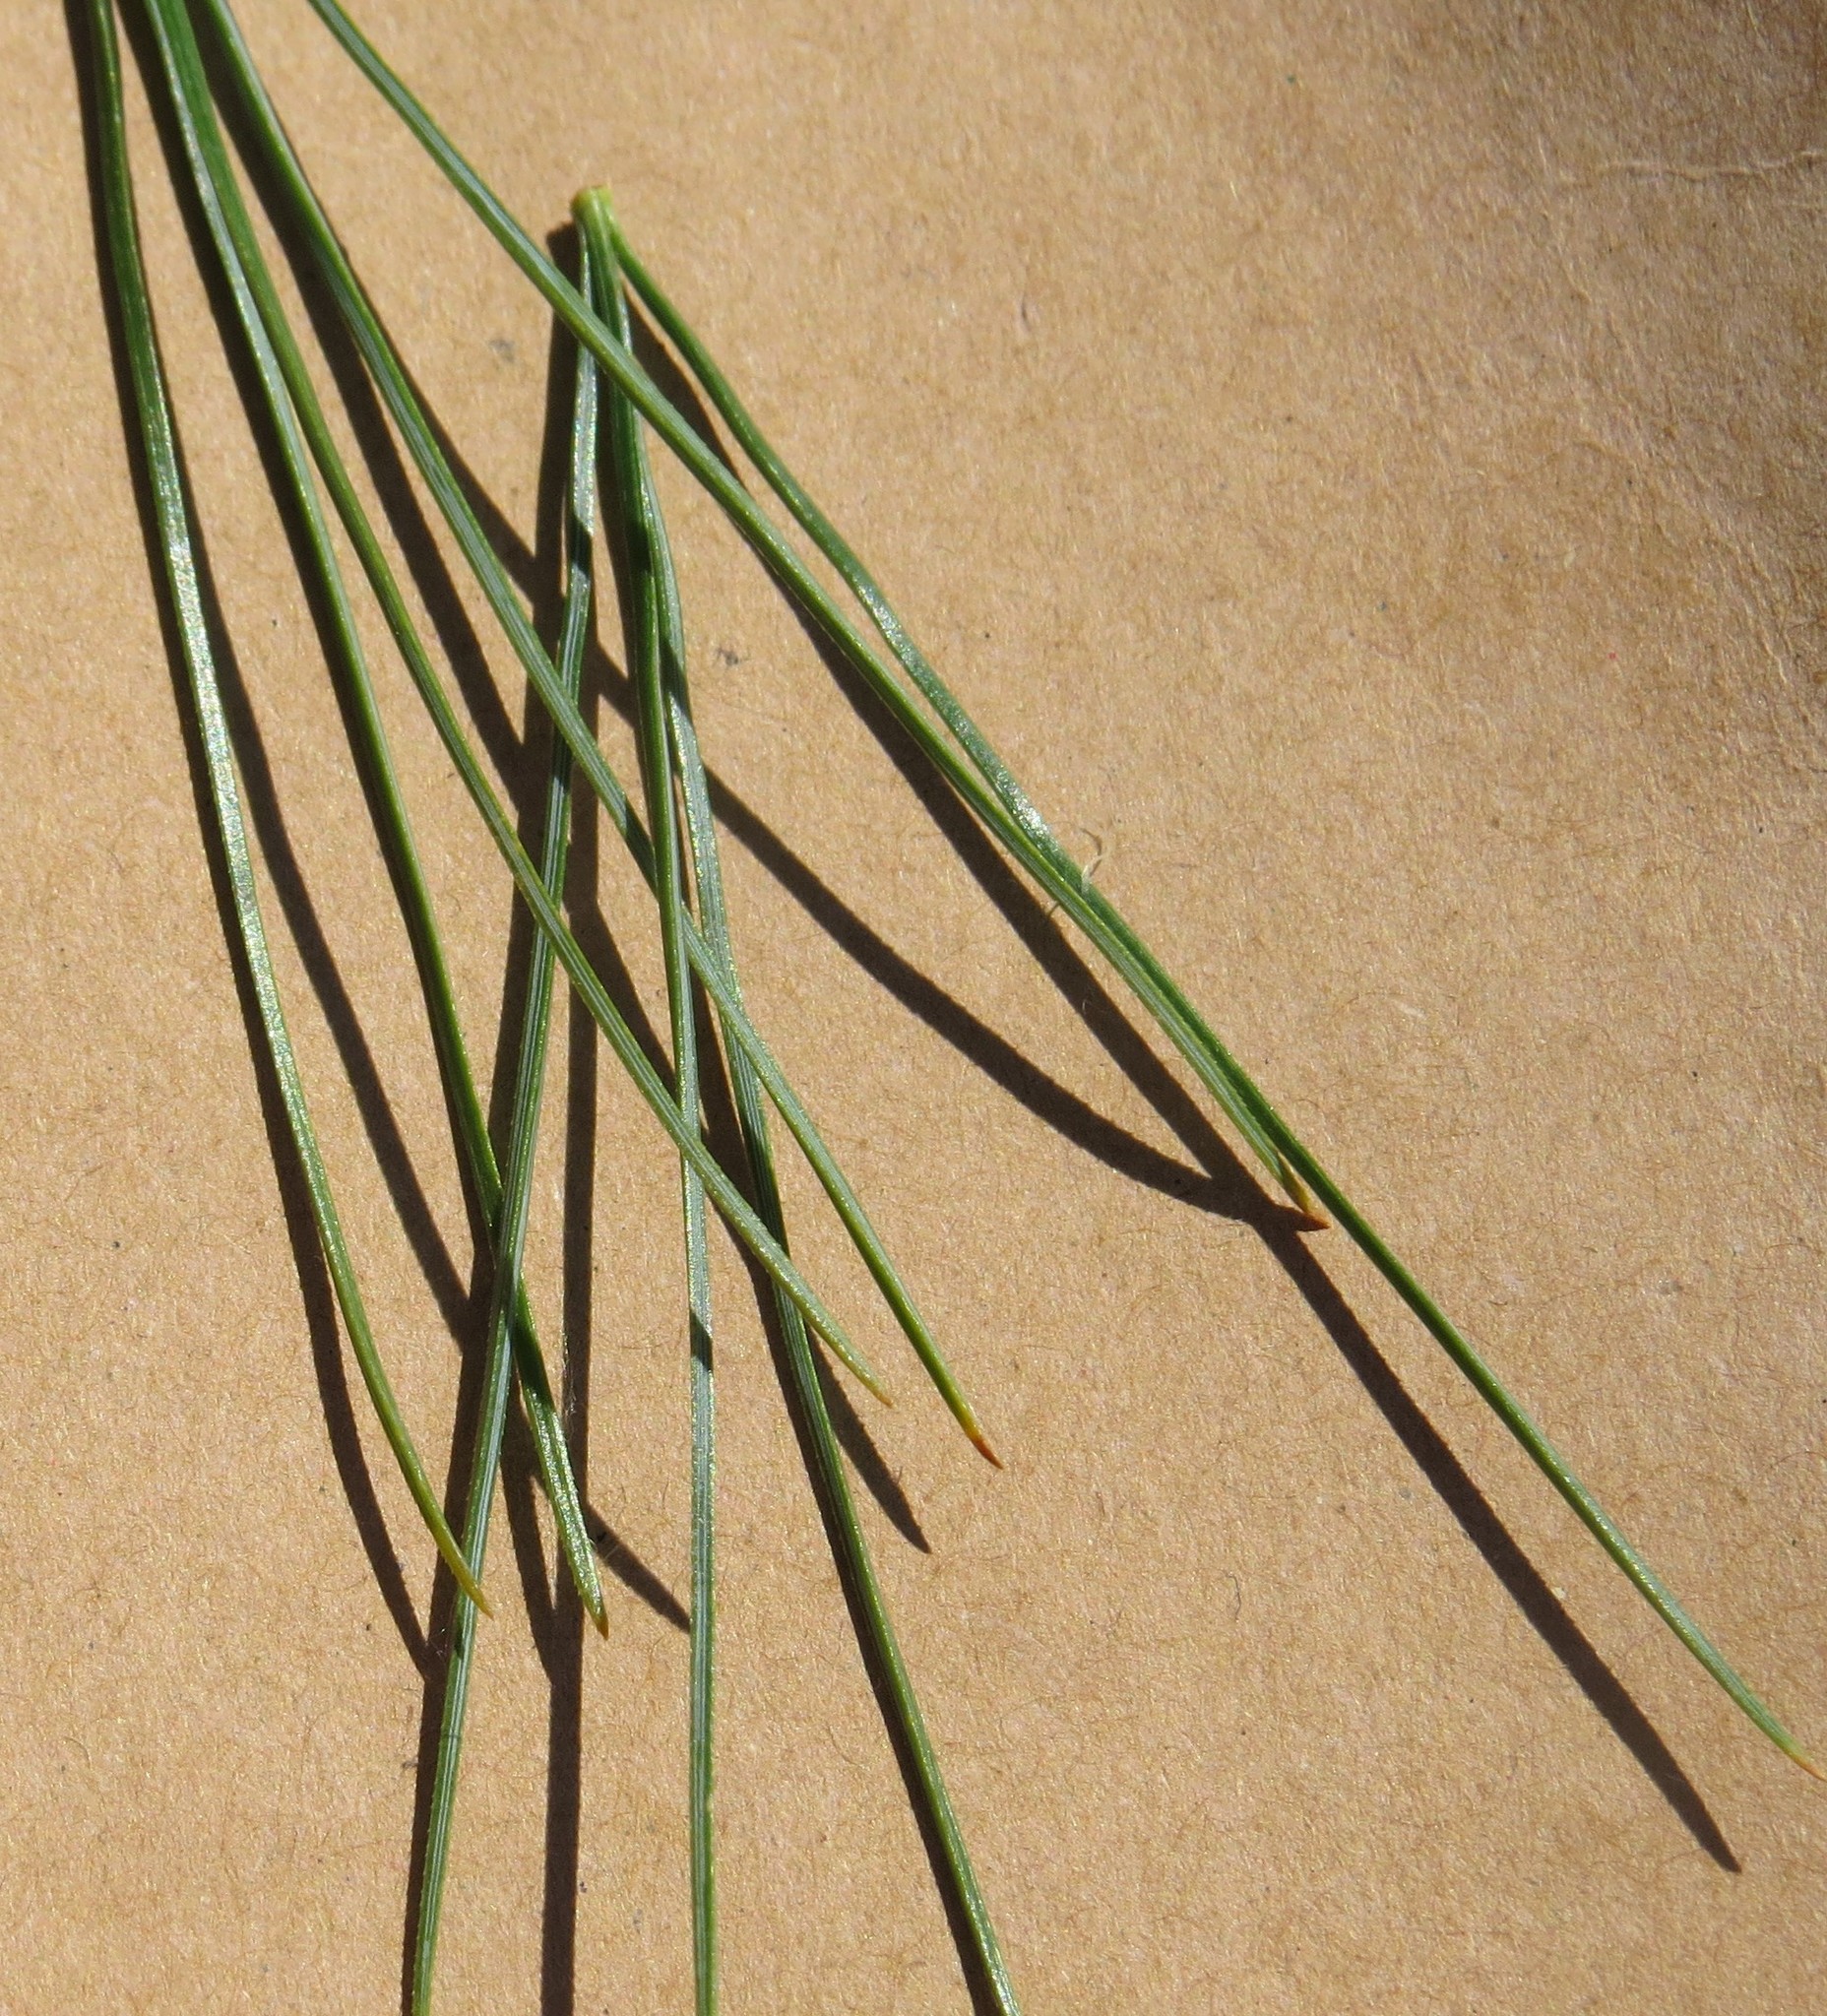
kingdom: Plantae
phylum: Tracheophyta
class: Pinopsida
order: Pinales
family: Pinaceae
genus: Pinus
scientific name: Pinus strobus
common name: Weymouth pine
